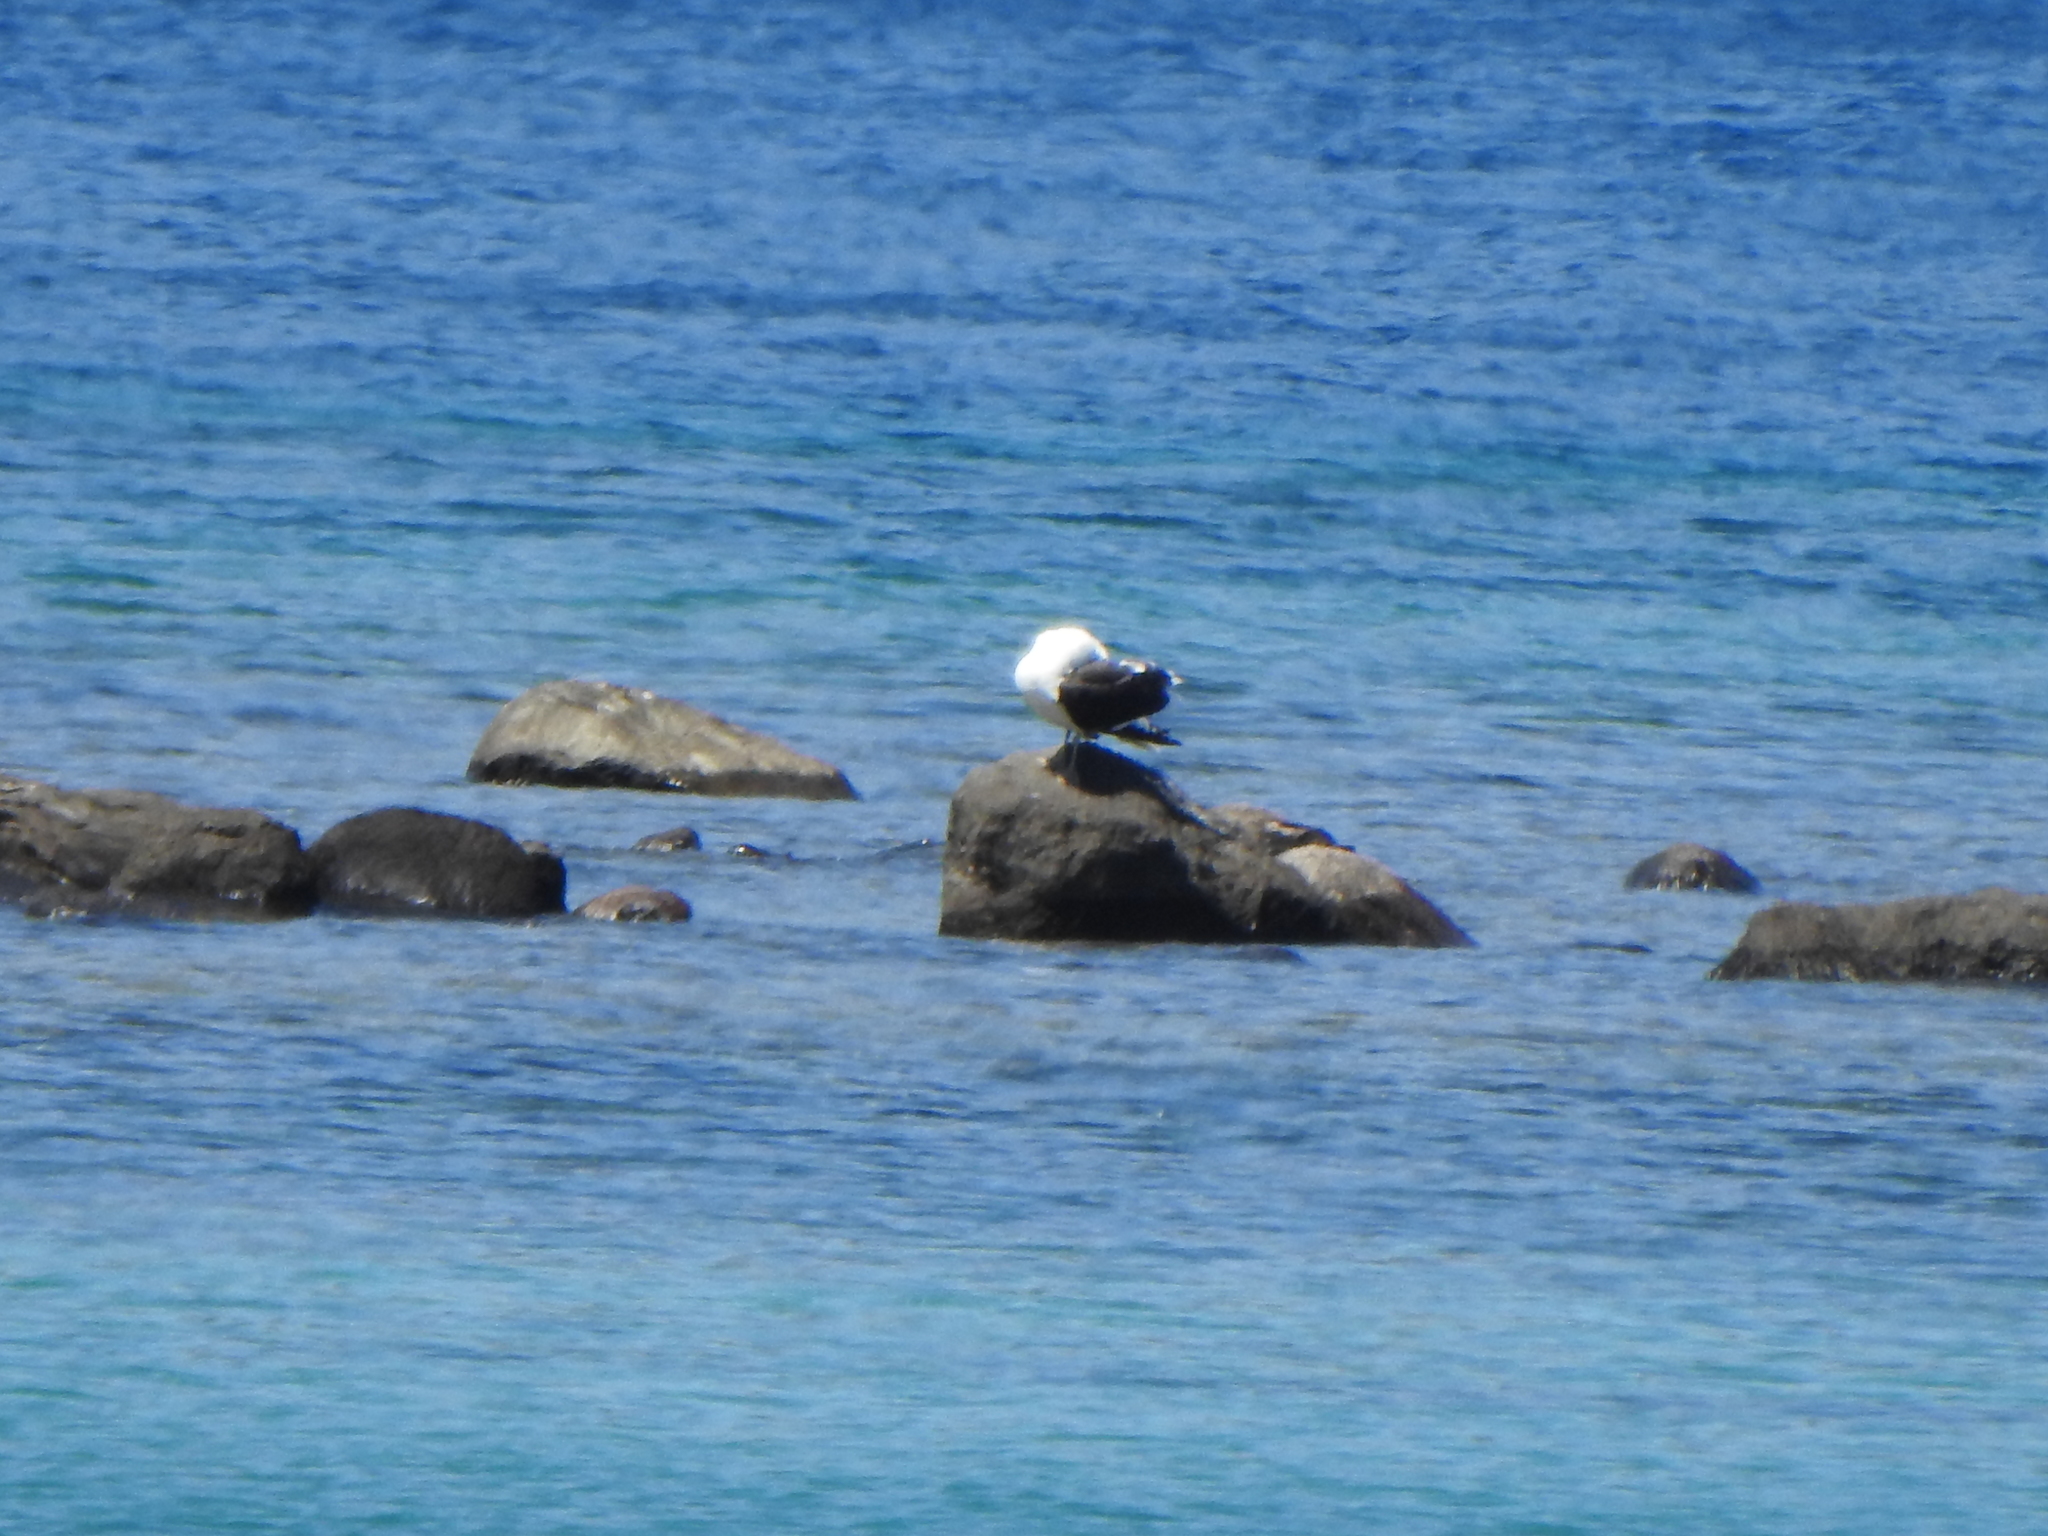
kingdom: Animalia
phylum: Chordata
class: Aves
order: Charadriiformes
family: Laridae
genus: Larus
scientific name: Larus dominicanus
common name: Kelp gull
